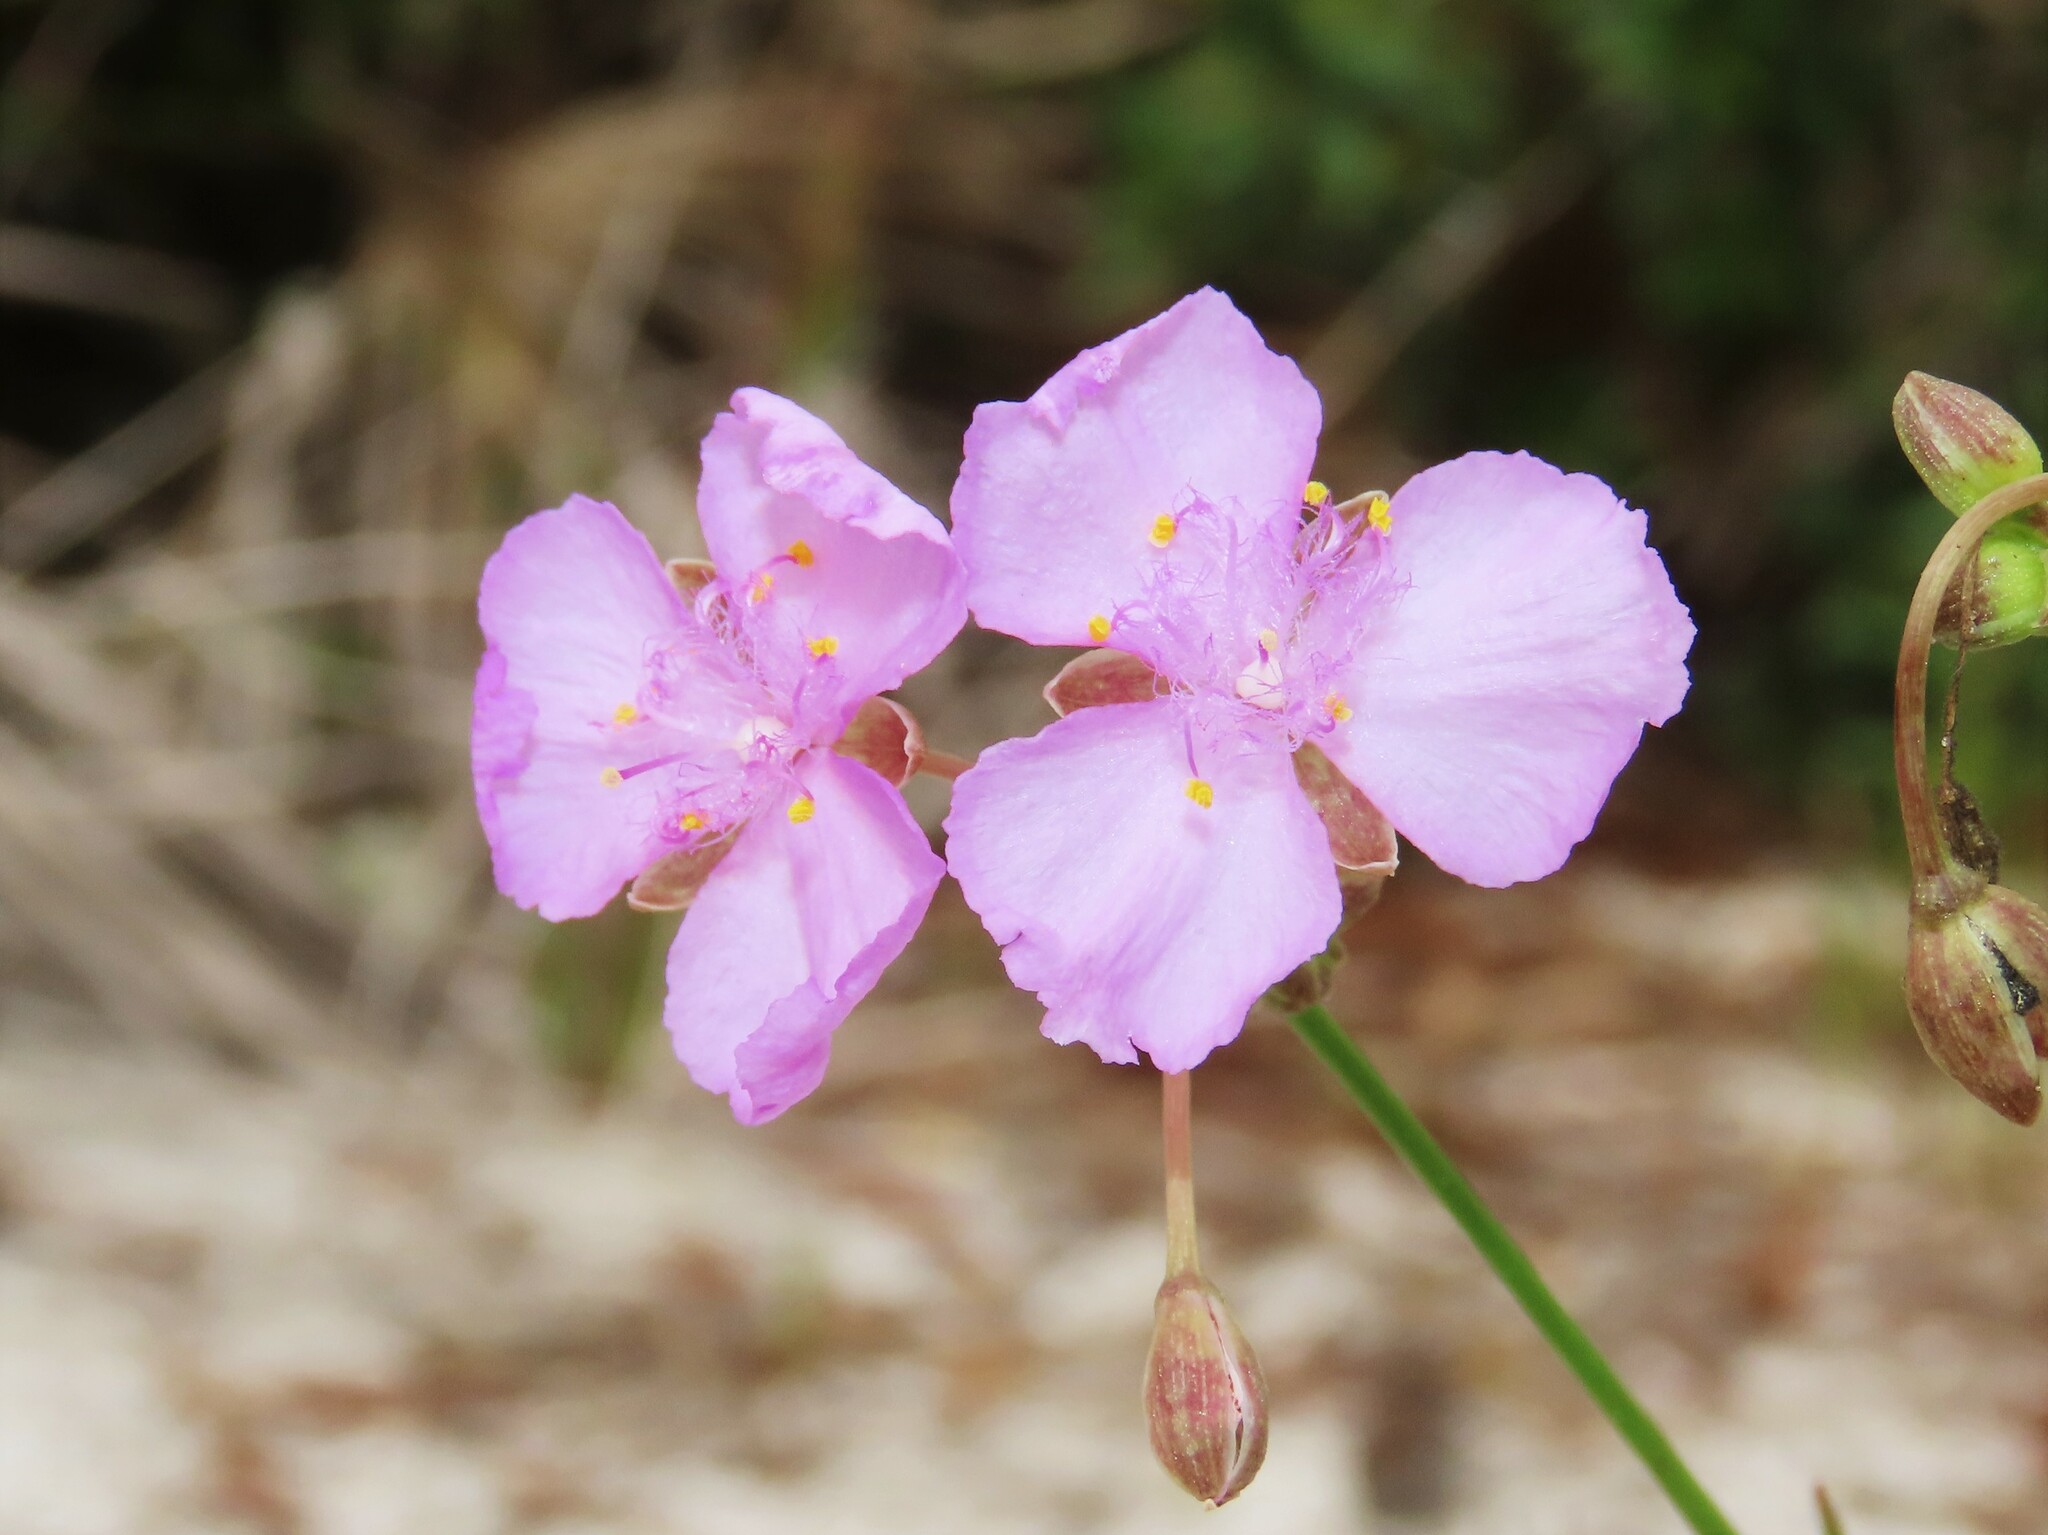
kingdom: Plantae
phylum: Tracheophyta
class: Liliopsida
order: Commelinales
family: Commelinaceae
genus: Callisia
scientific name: Callisia ornata
